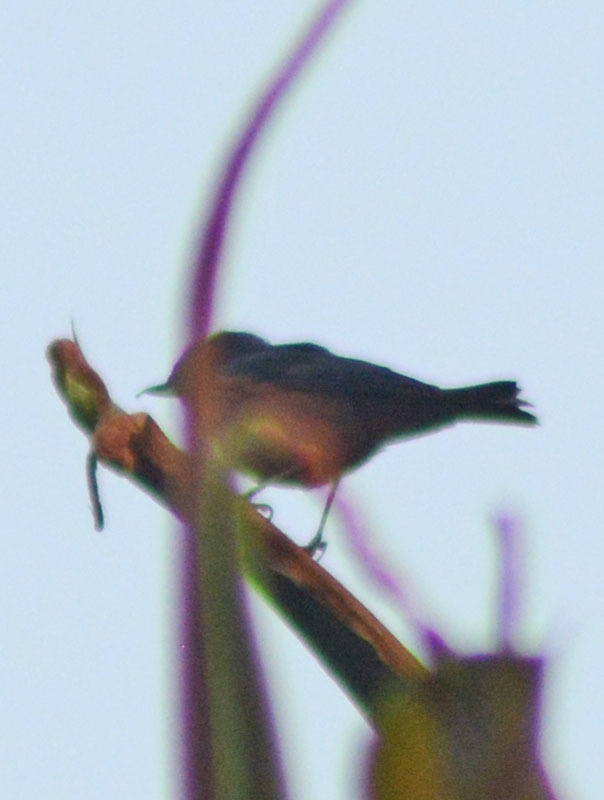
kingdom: Animalia
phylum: Chordata
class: Aves
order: Passeriformes
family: Thraupidae
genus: Diglossa
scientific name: Diglossa baritula
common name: Cinnamon-bellied flowerpiercer
